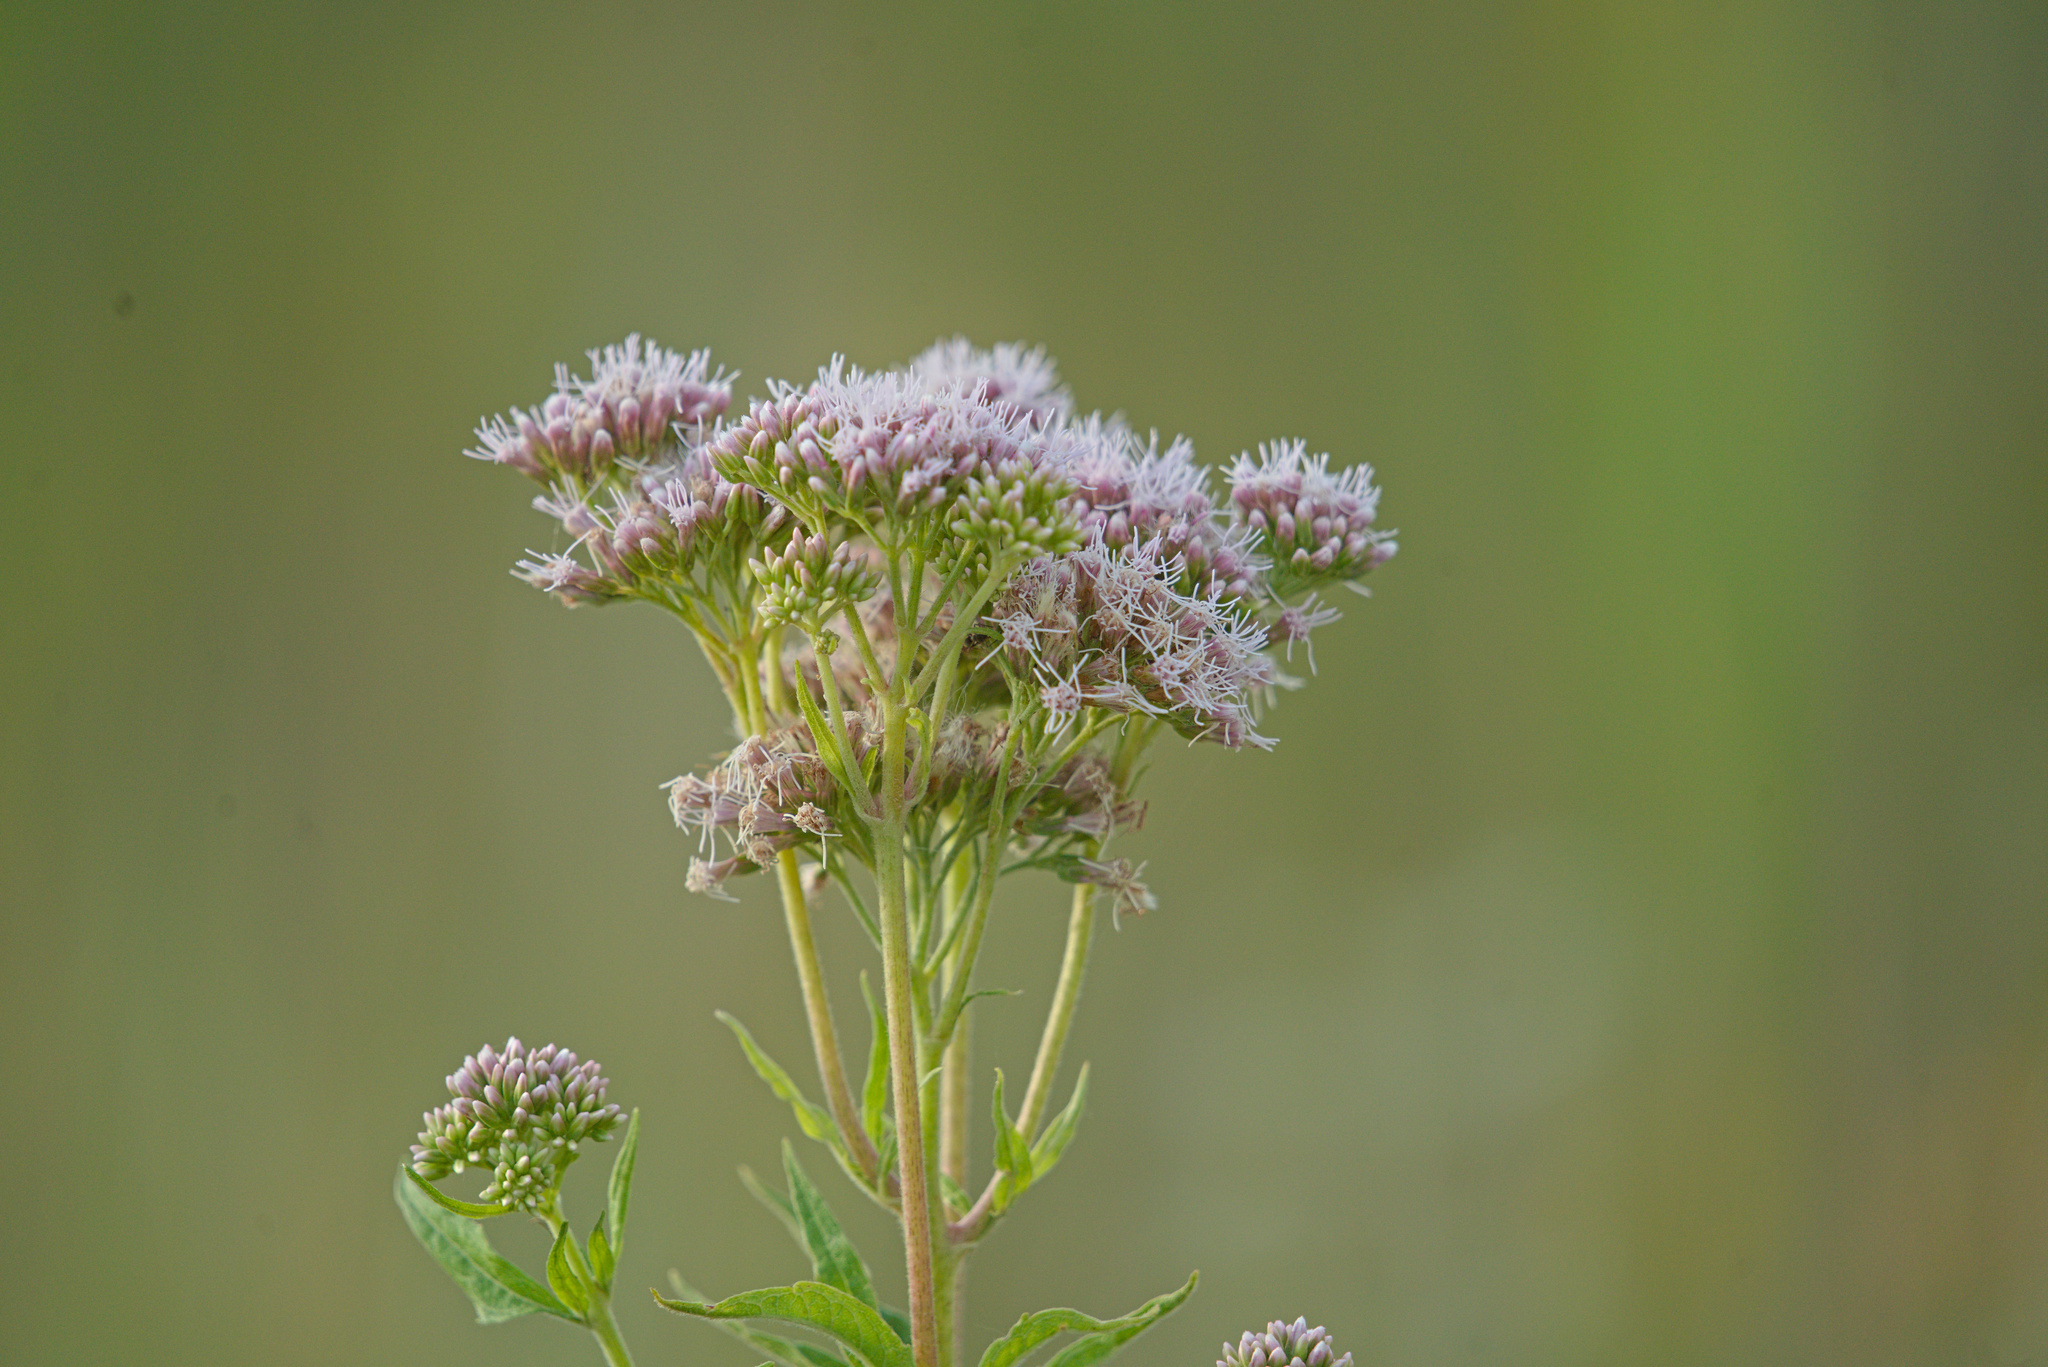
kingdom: Plantae
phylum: Tracheophyta
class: Magnoliopsida
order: Asterales
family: Asteraceae
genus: Eupatorium
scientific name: Eupatorium cannabinum
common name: Hemp-agrimony
